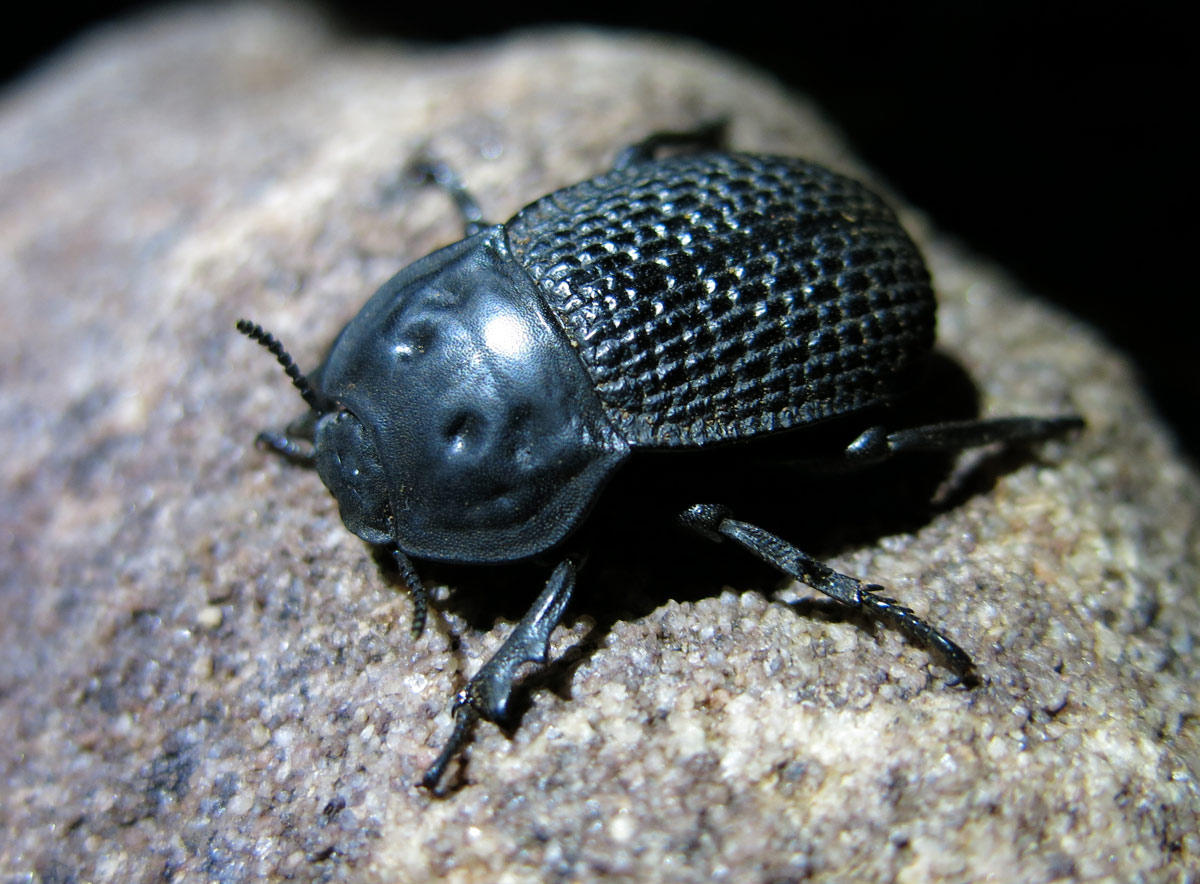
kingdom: Animalia
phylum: Arthropoda
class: Insecta
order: Coleoptera
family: Tenebrionidae
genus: Anomalipus
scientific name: Anomalipus
